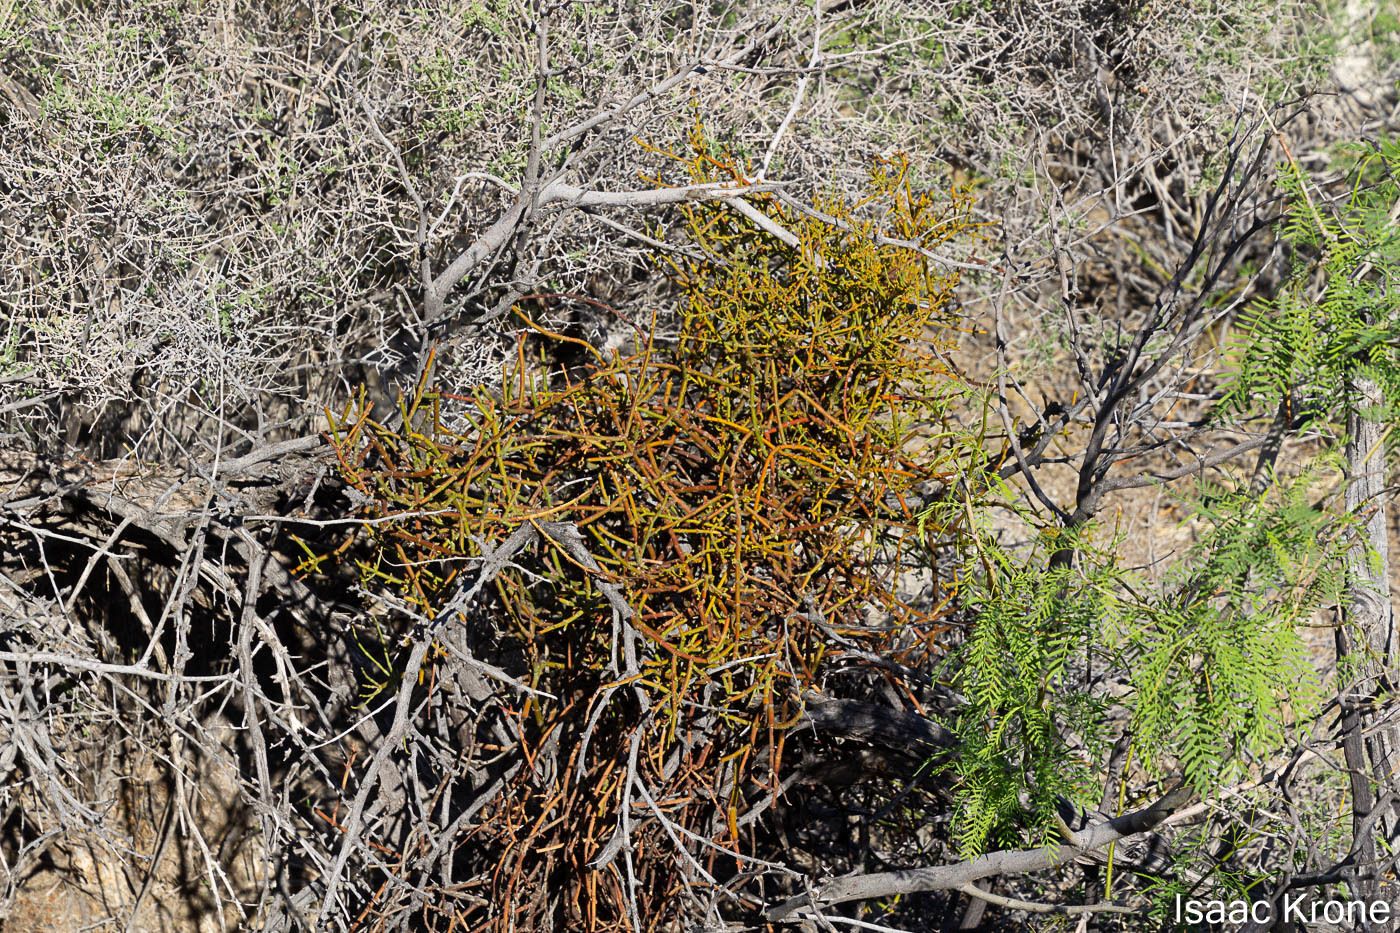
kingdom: Plantae
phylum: Tracheophyta
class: Magnoliopsida
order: Santalales
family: Viscaceae
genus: Phoradendron
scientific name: Phoradendron californicum
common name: Acacia mistletoe
